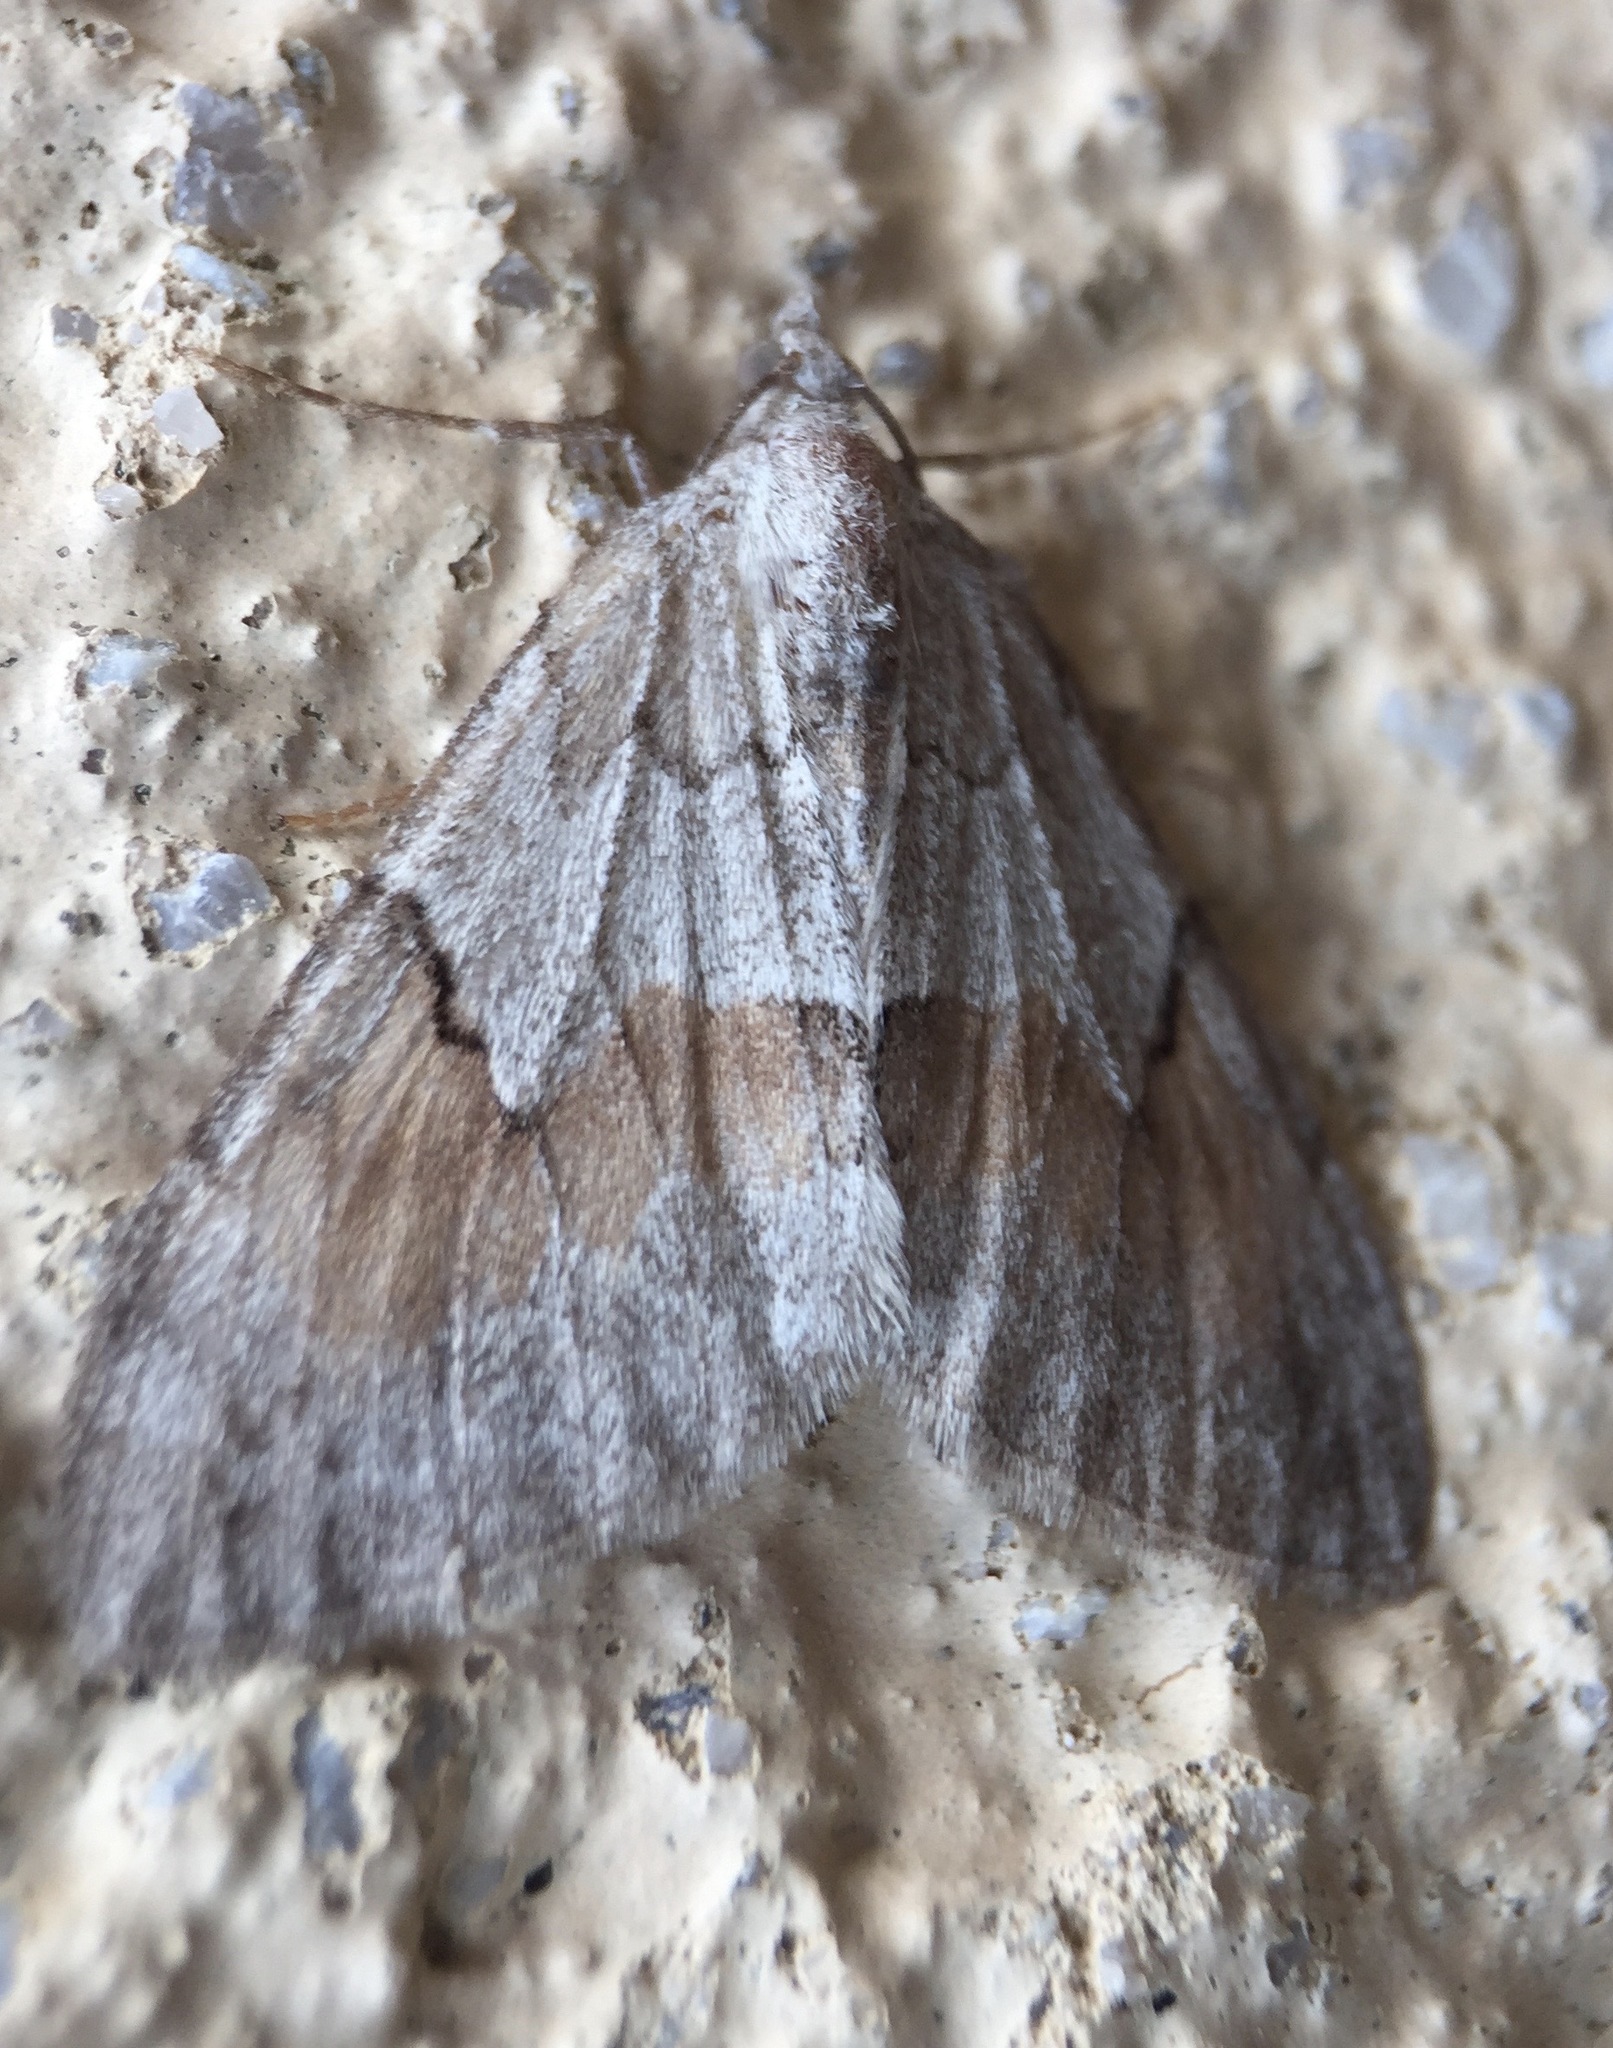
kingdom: Animalia
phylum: Arthropoda
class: Insecta
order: Lepidoptera
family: Geometridae
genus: Pennithera
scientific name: Pennithera ulicata
